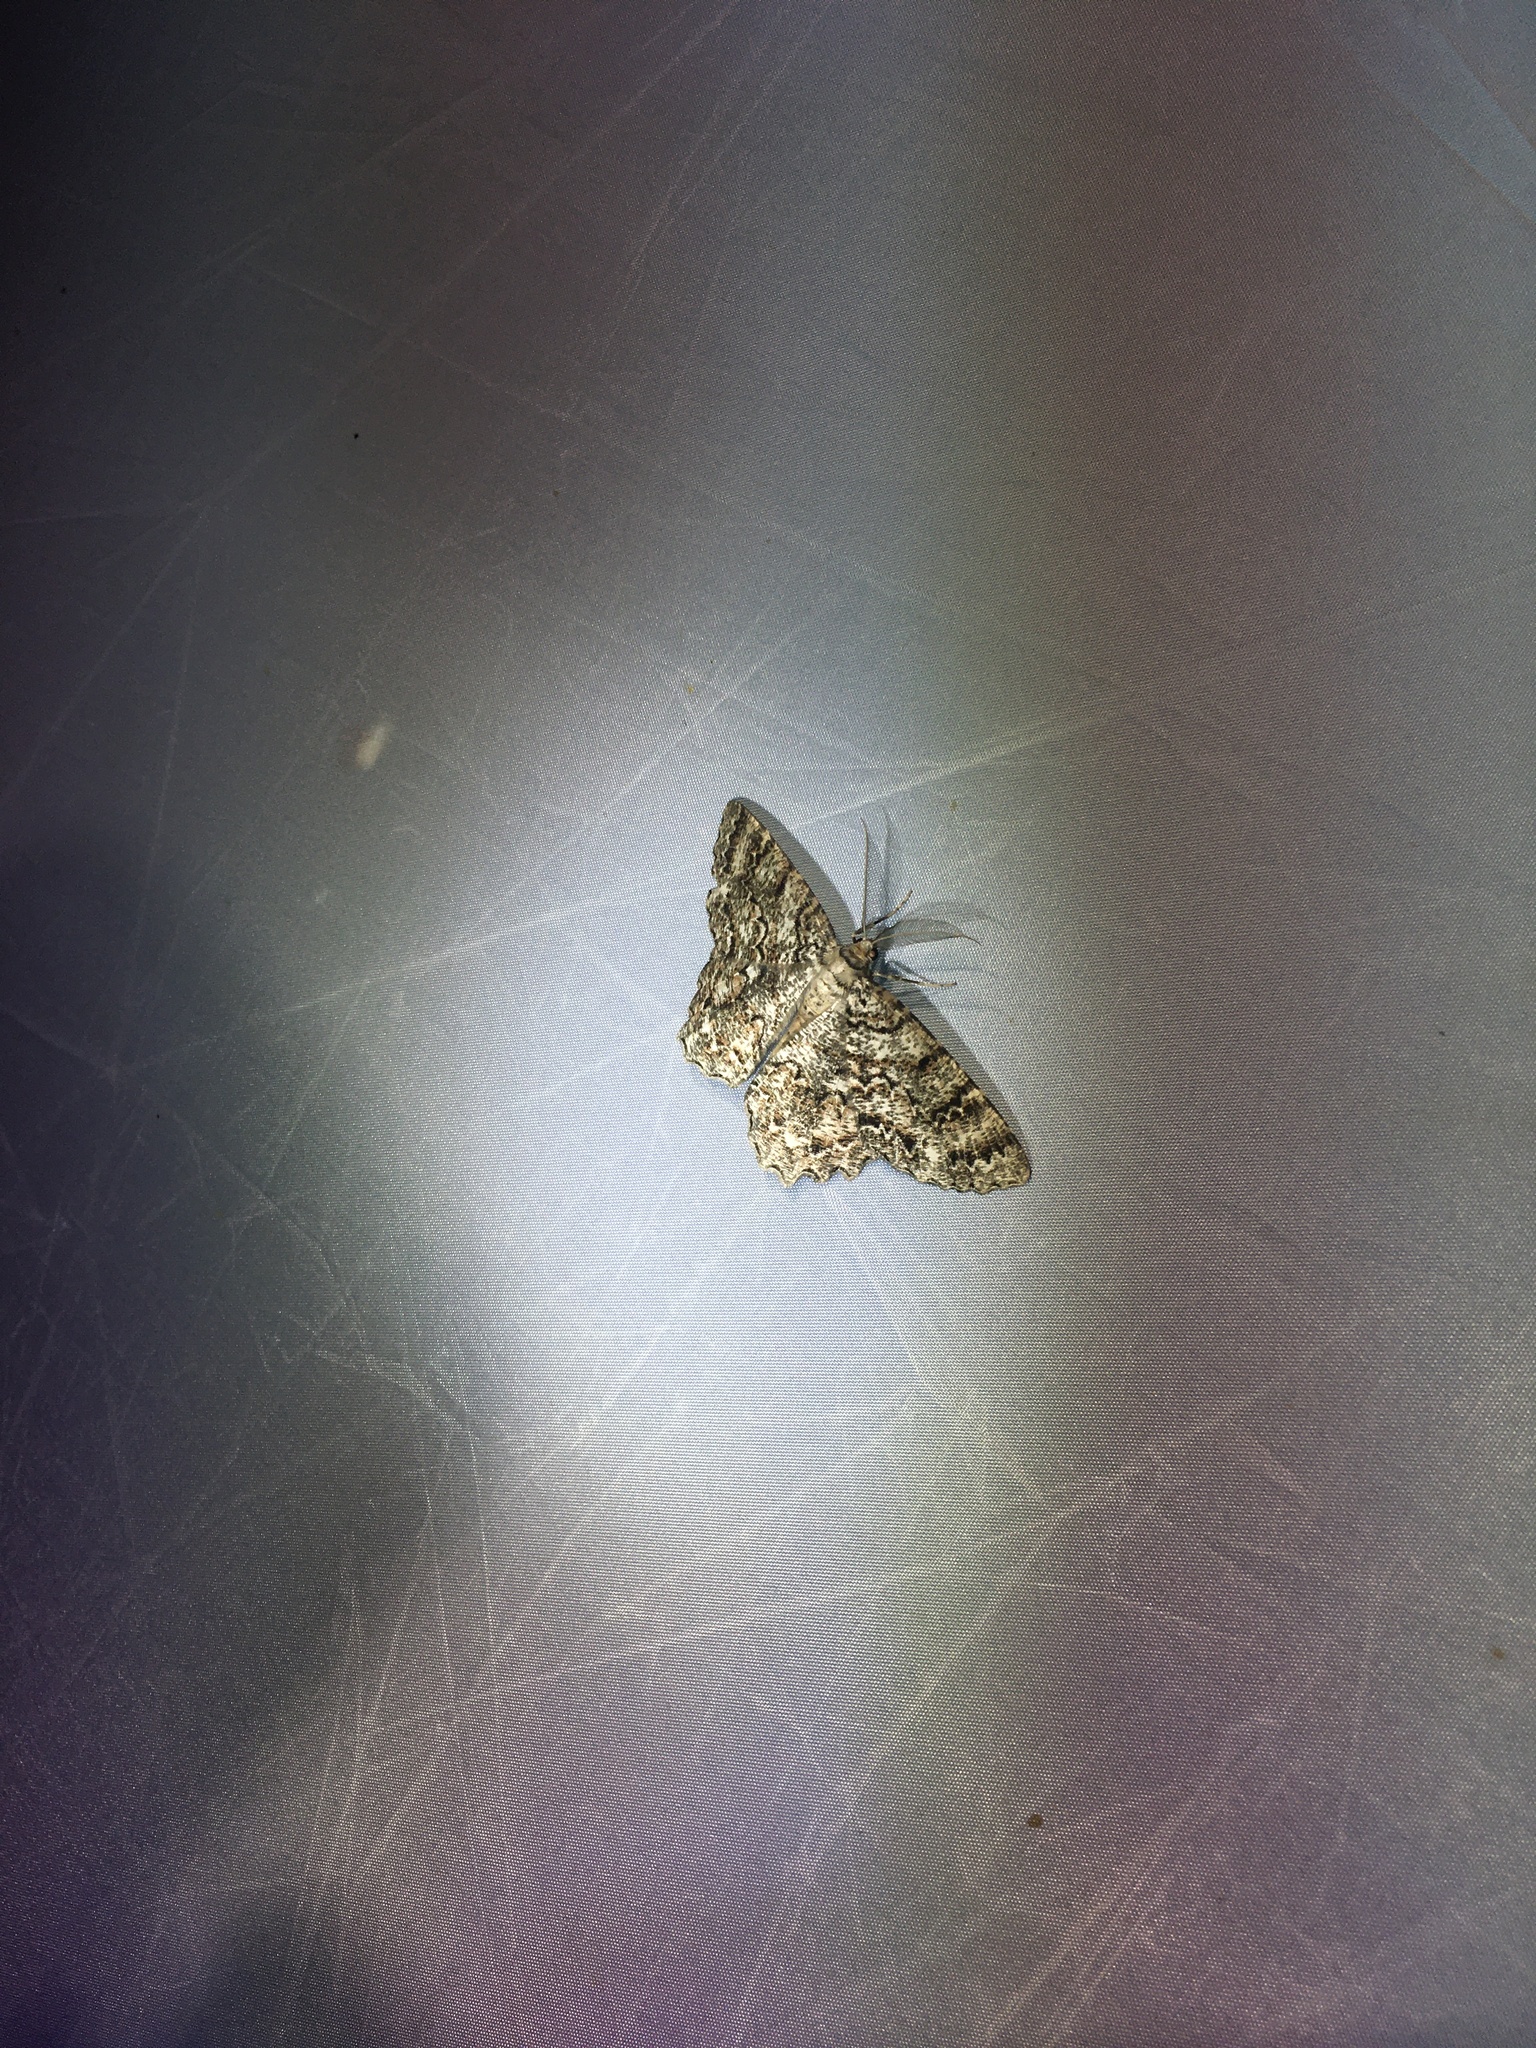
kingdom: Animalia
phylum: Arthropoda
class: Insecta
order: Lepidoptera
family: Geometridae
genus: Epimecis
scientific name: Epimecis hortaria
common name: Tulip-tree beauty
